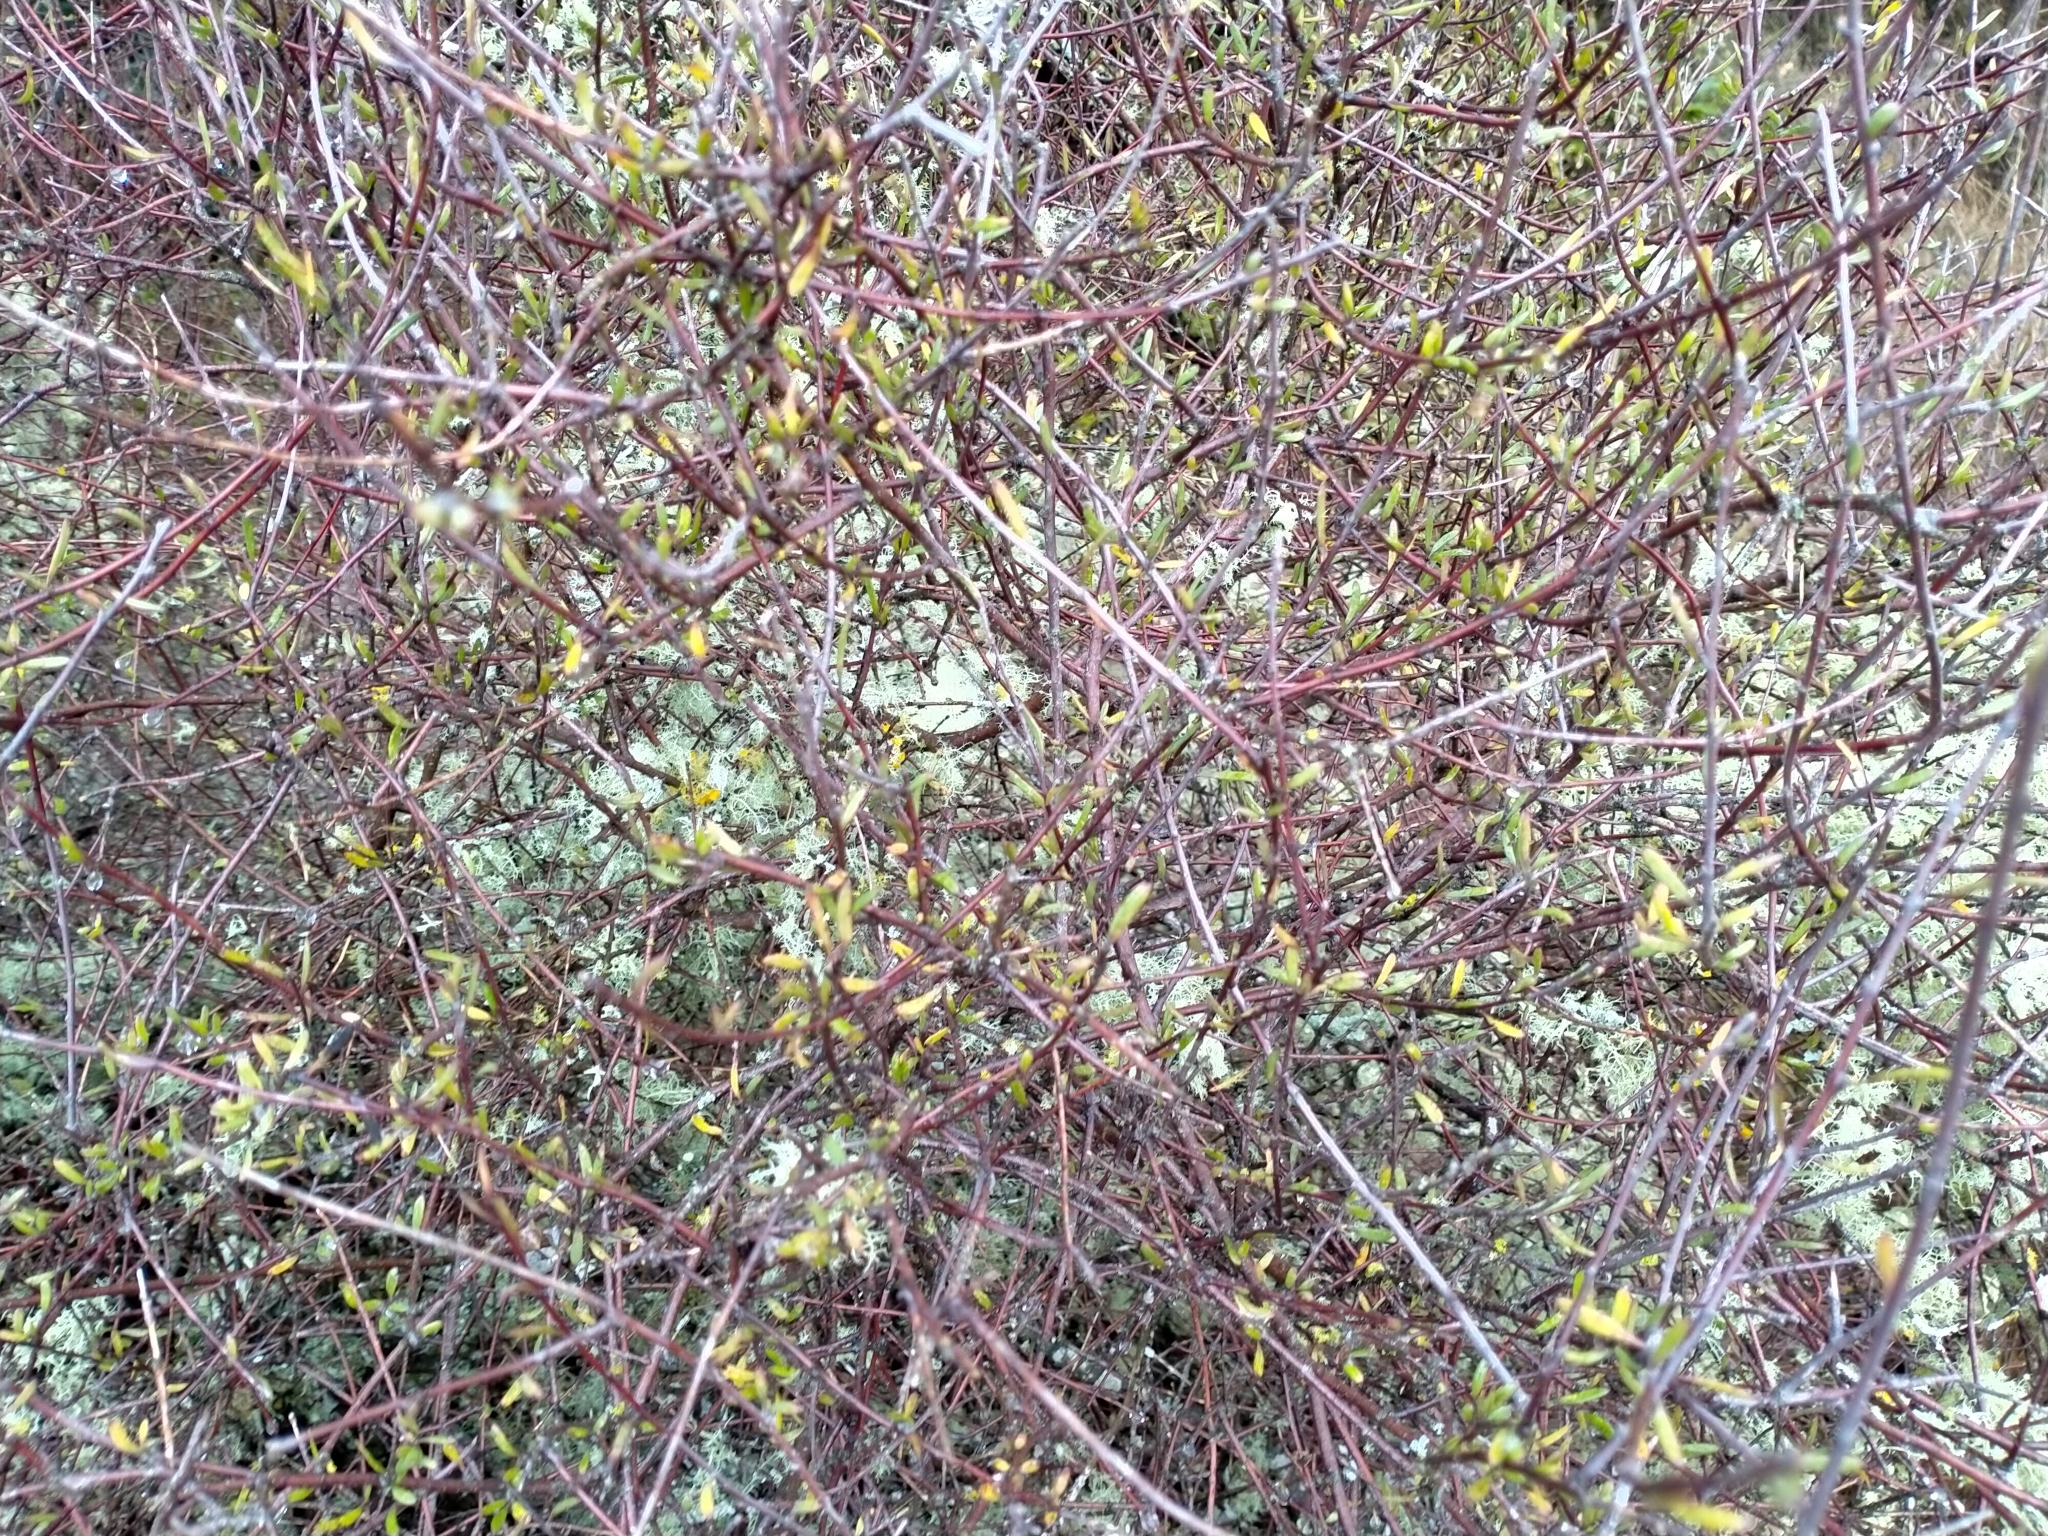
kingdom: Plantae
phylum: Tracheophyta
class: Magnoliopsida
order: Malvales
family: Malvaceae
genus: Plagianthus
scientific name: Plagianthus divaricatus
